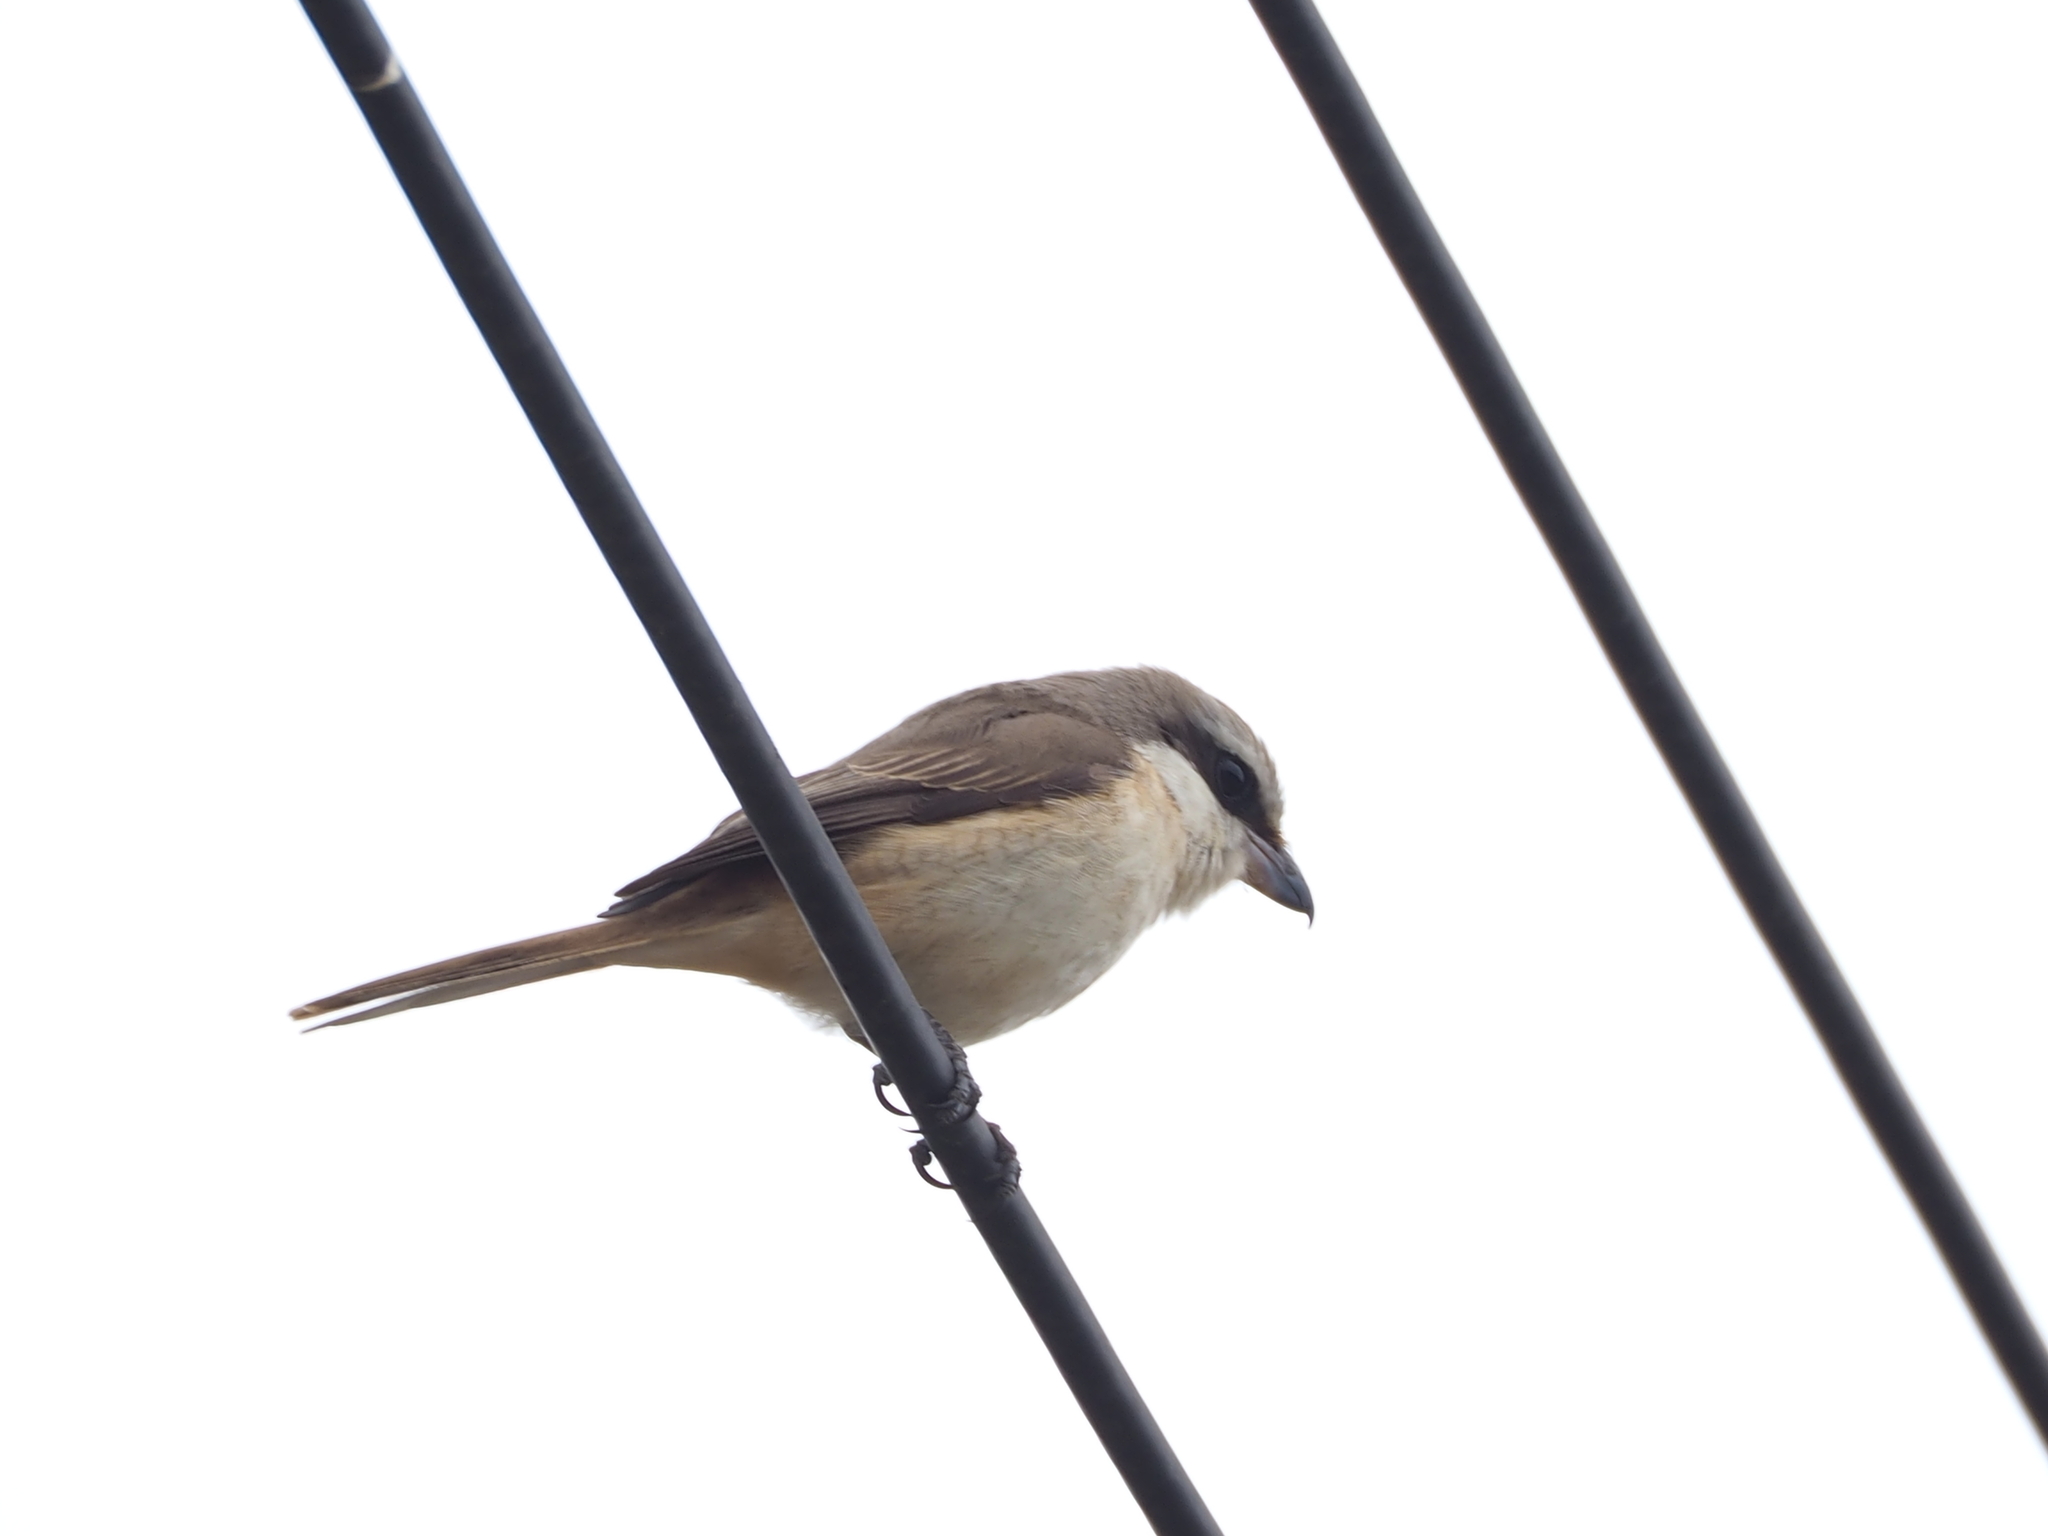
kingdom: Animalia
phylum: Chordata
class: Aves
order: Passeriformes
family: Laniidae
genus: Lanius
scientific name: Lanius cristatus
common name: Brown shrike
